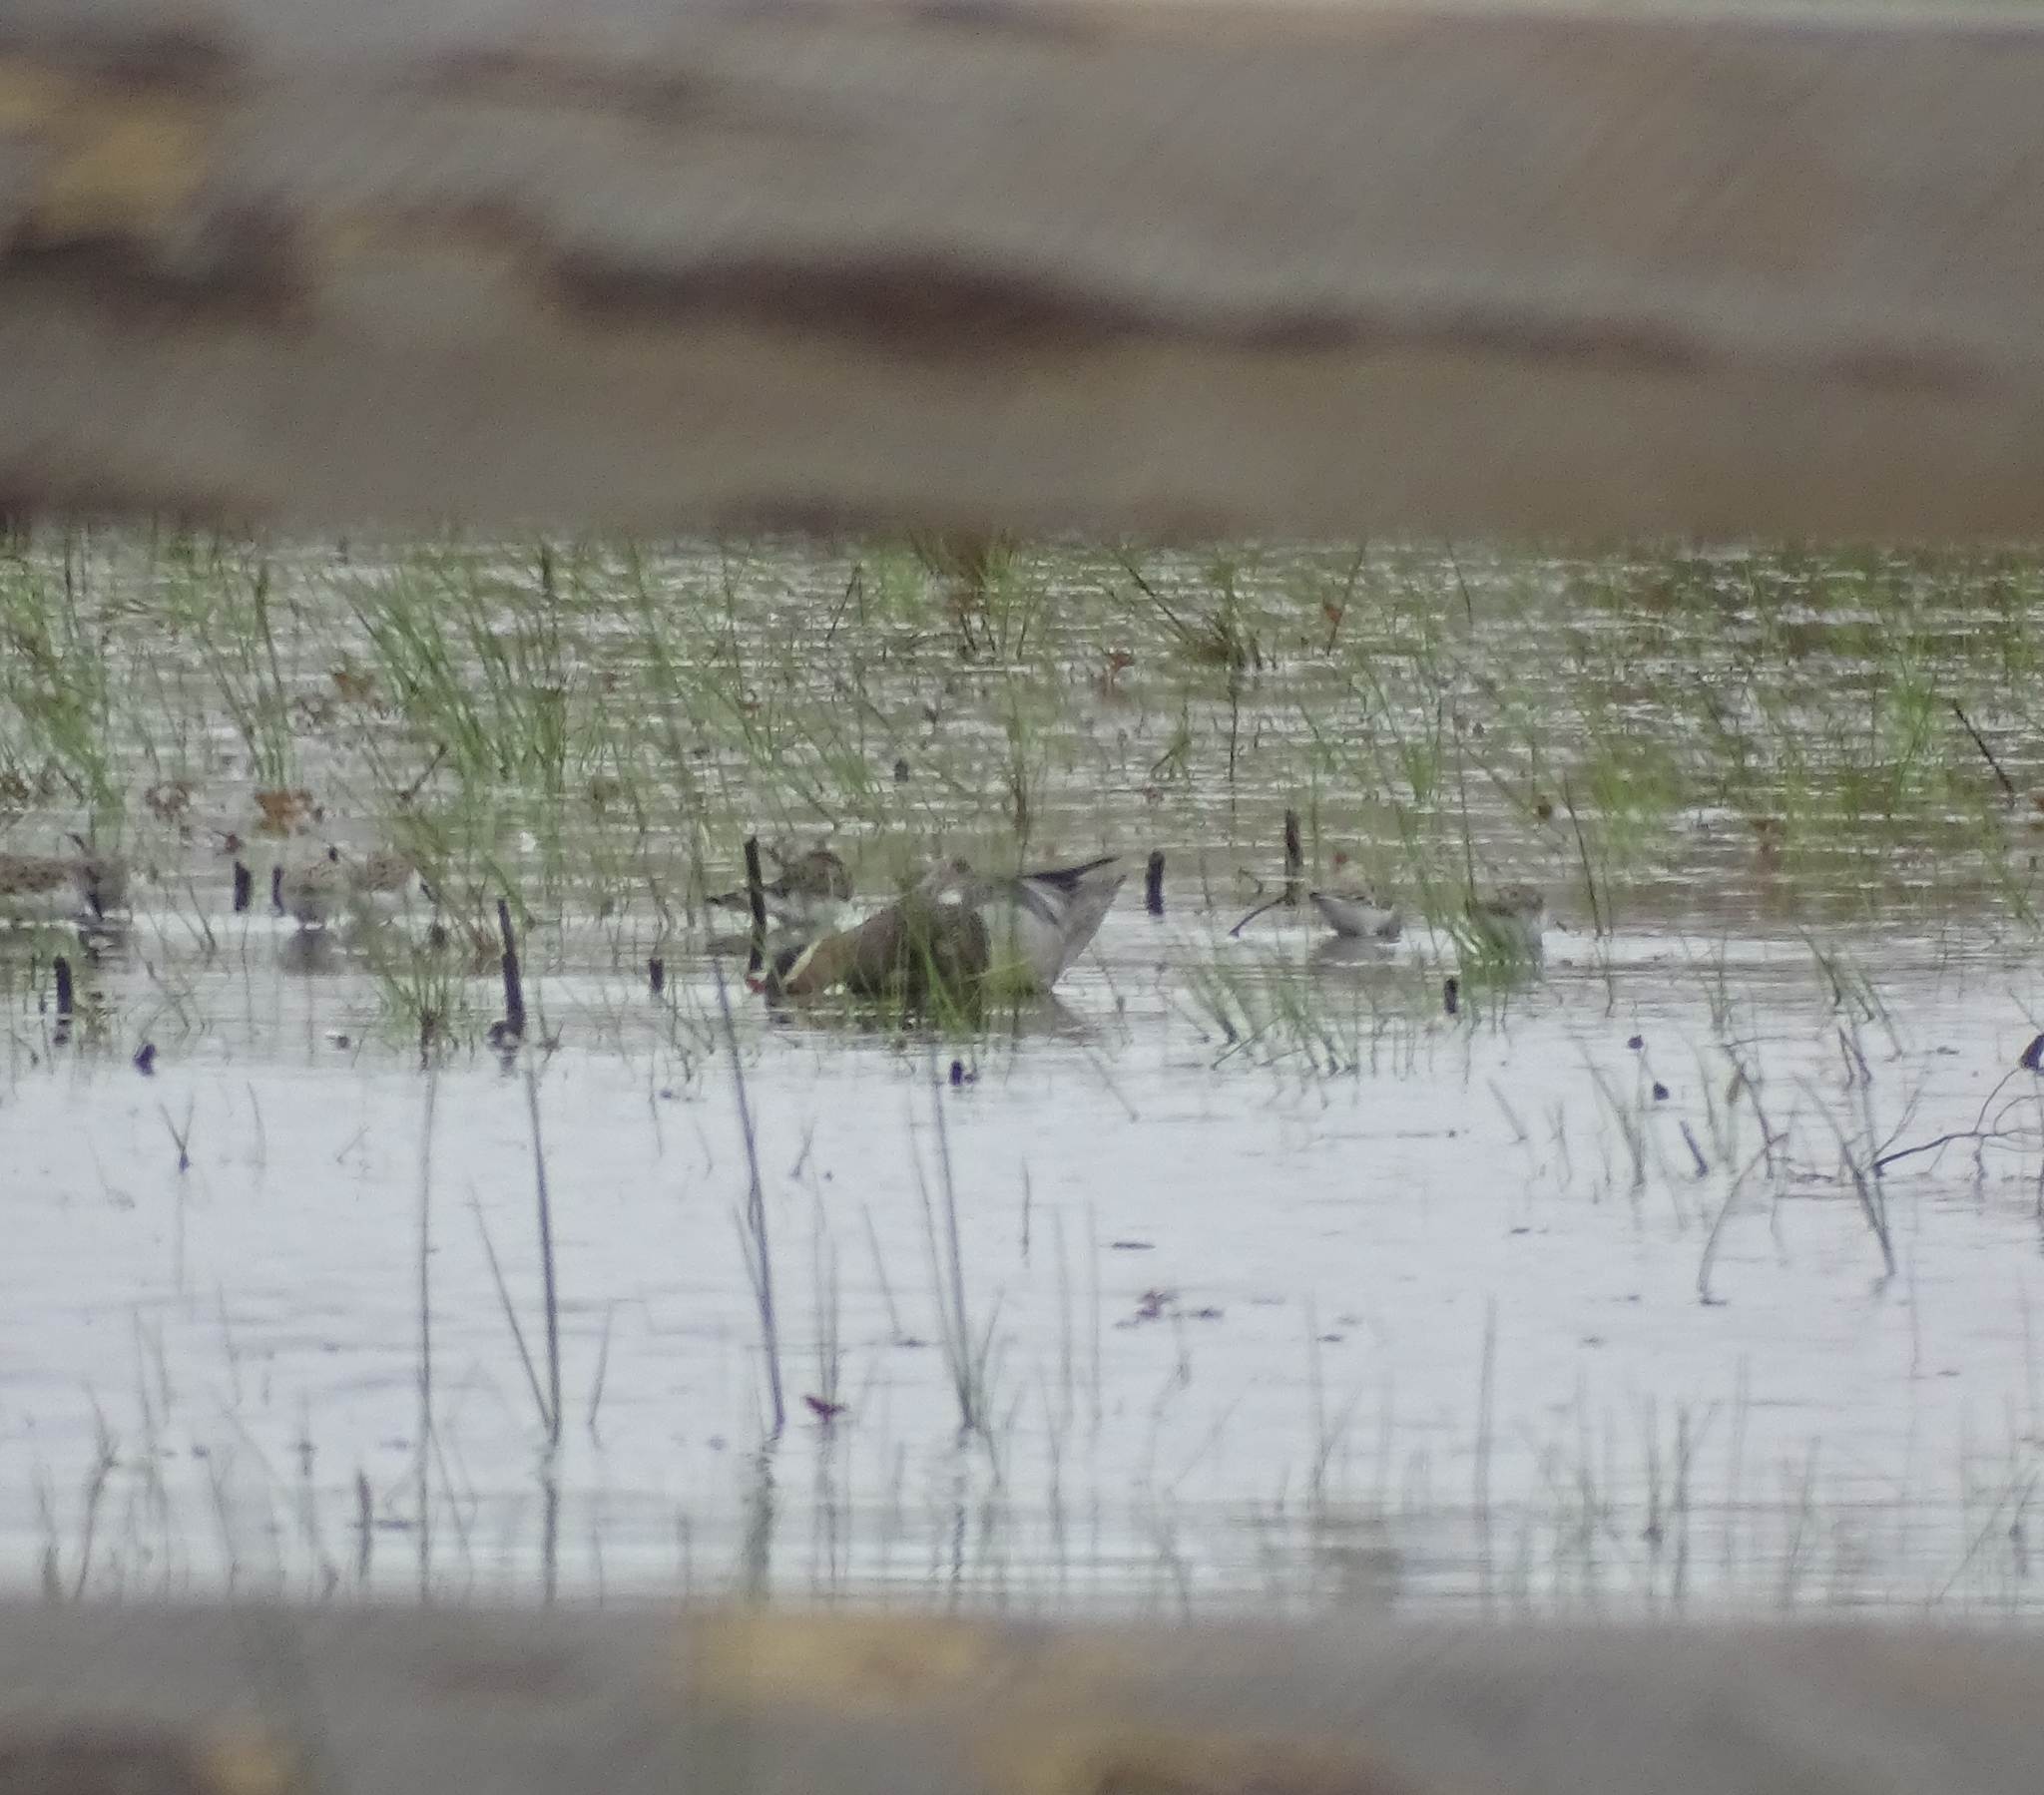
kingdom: Animalia
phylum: Chordata
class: Aves
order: Anseriformes
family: Anatidae
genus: Spatula
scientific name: Spatula querquedula
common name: Garganey
